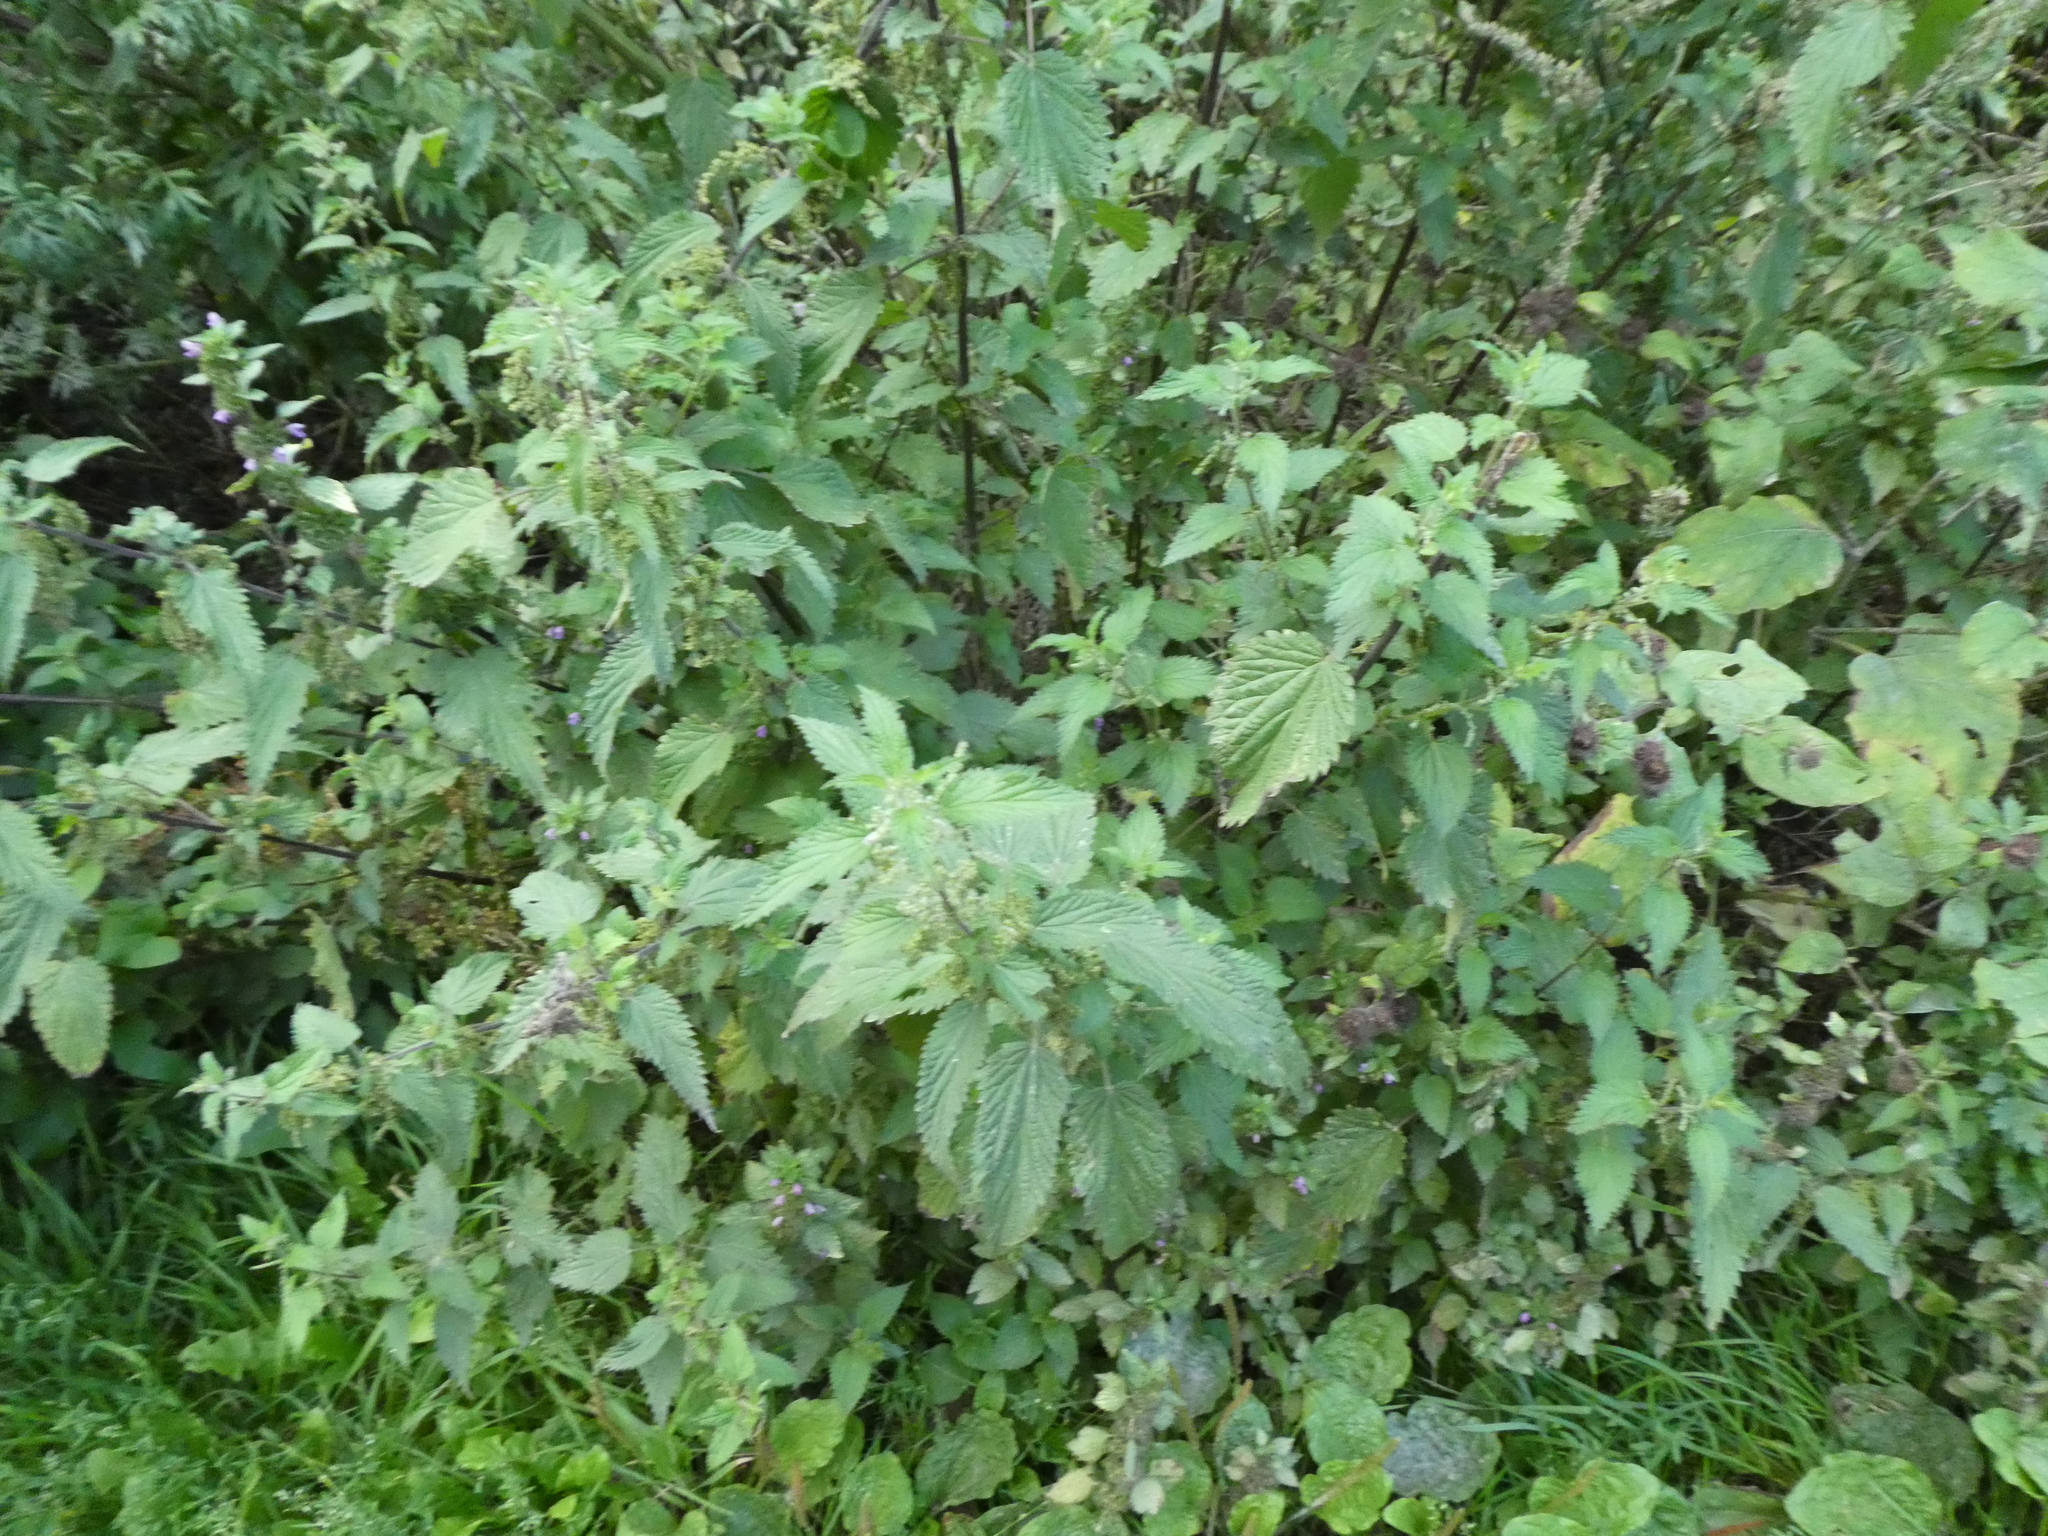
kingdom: Plantae
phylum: Tracheophyta
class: Magnoliopsida
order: Rosales
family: Urticaceae
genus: Urtica
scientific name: Urtica dioica
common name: Common nettle
